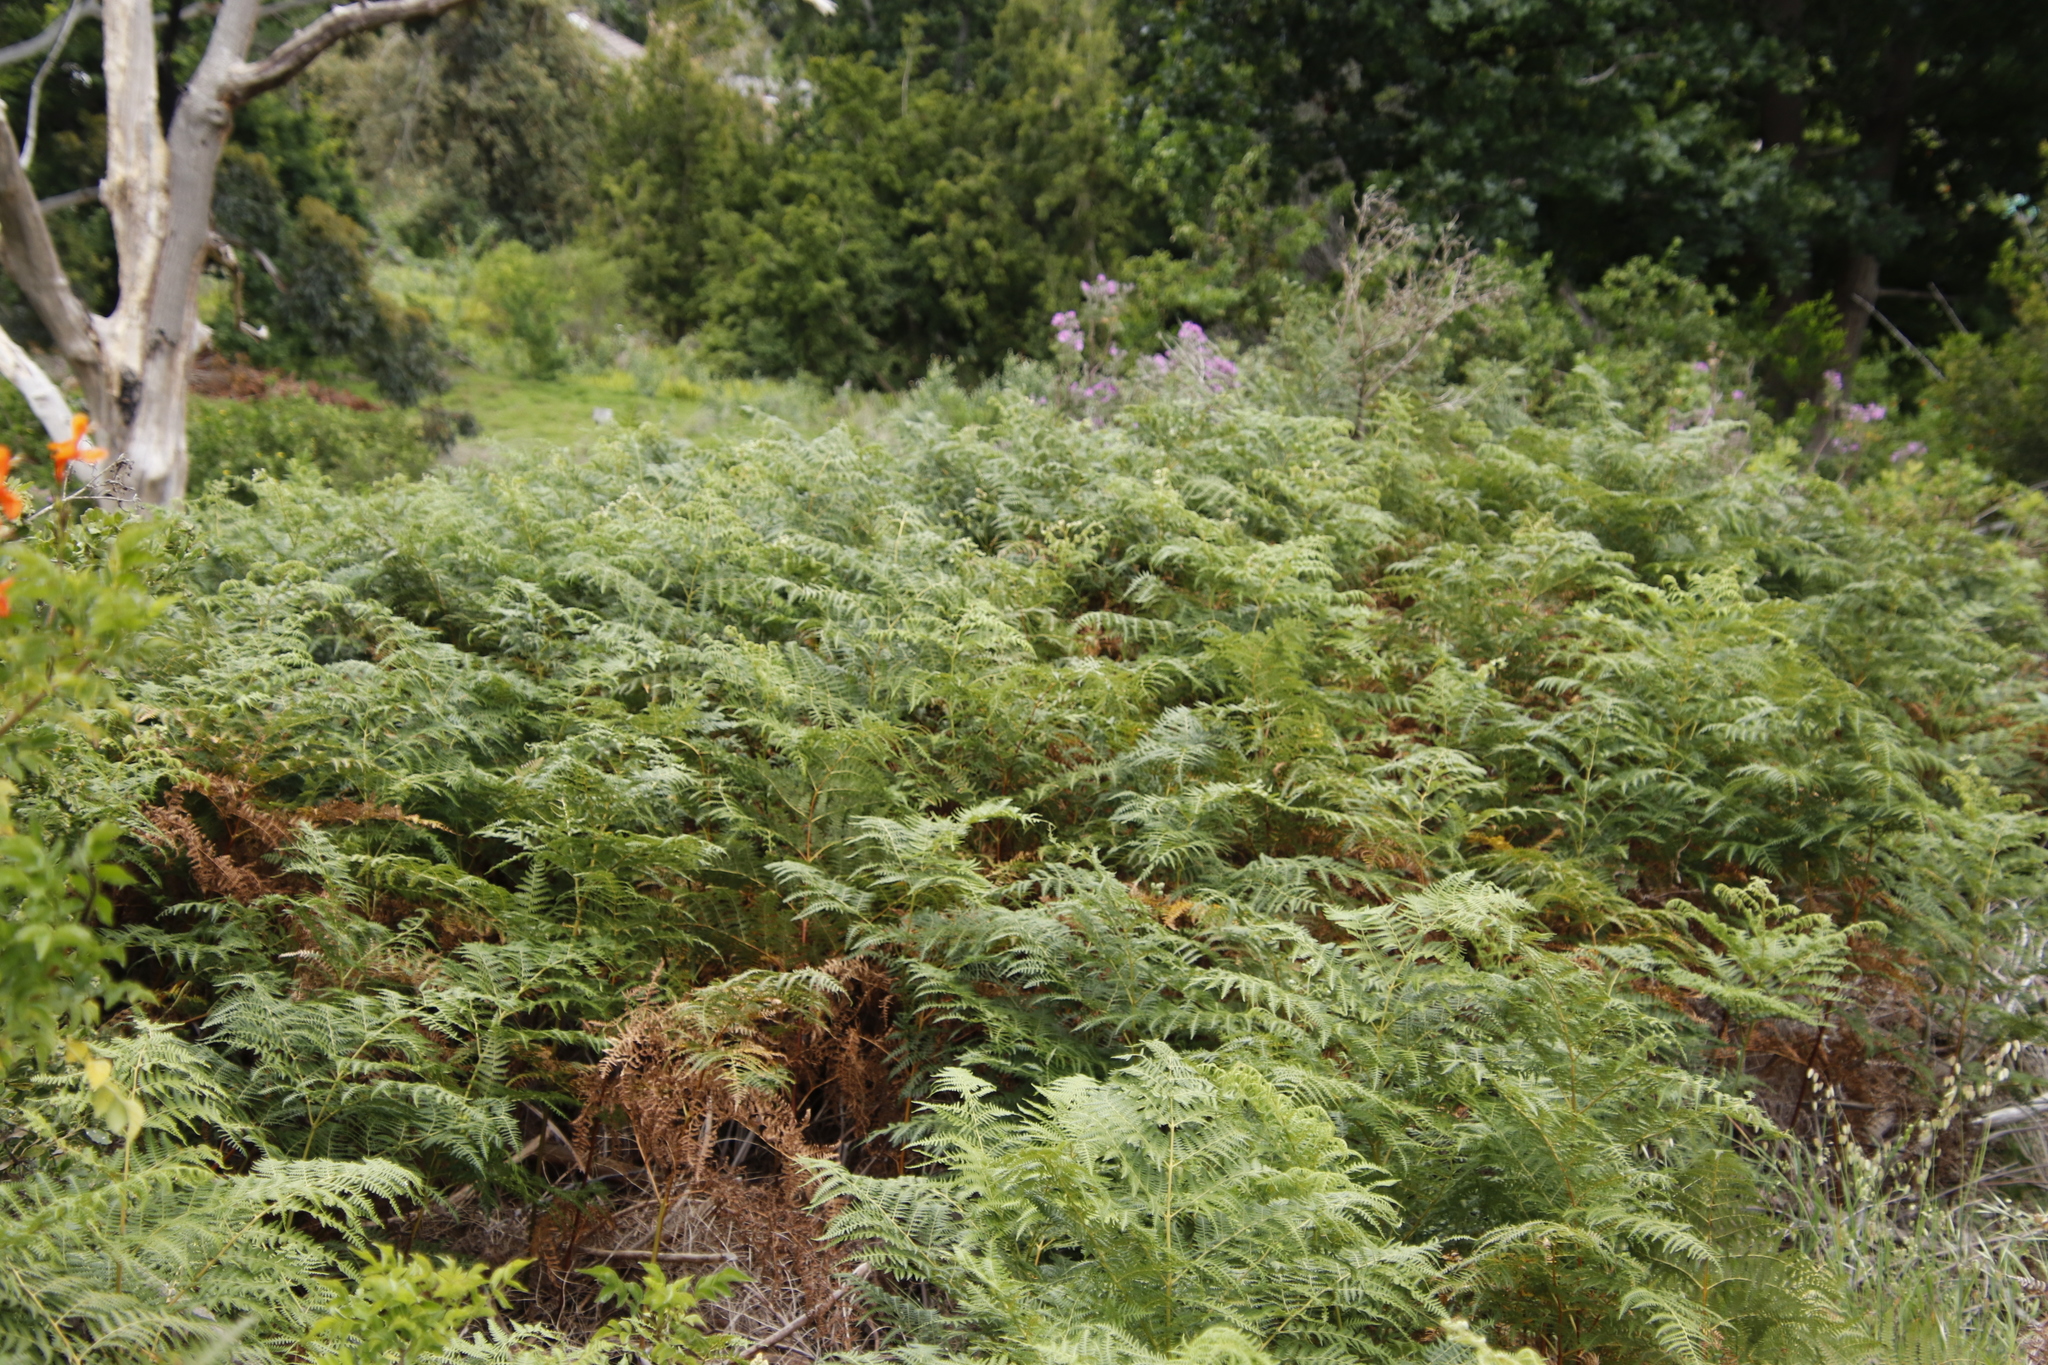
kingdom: Plantae
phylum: Tracheophyta
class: Polypodiopsida
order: Polypodiales
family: Dennstaedtiaceae
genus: Pteridium
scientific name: Pteridium aquilinum
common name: Bracken
